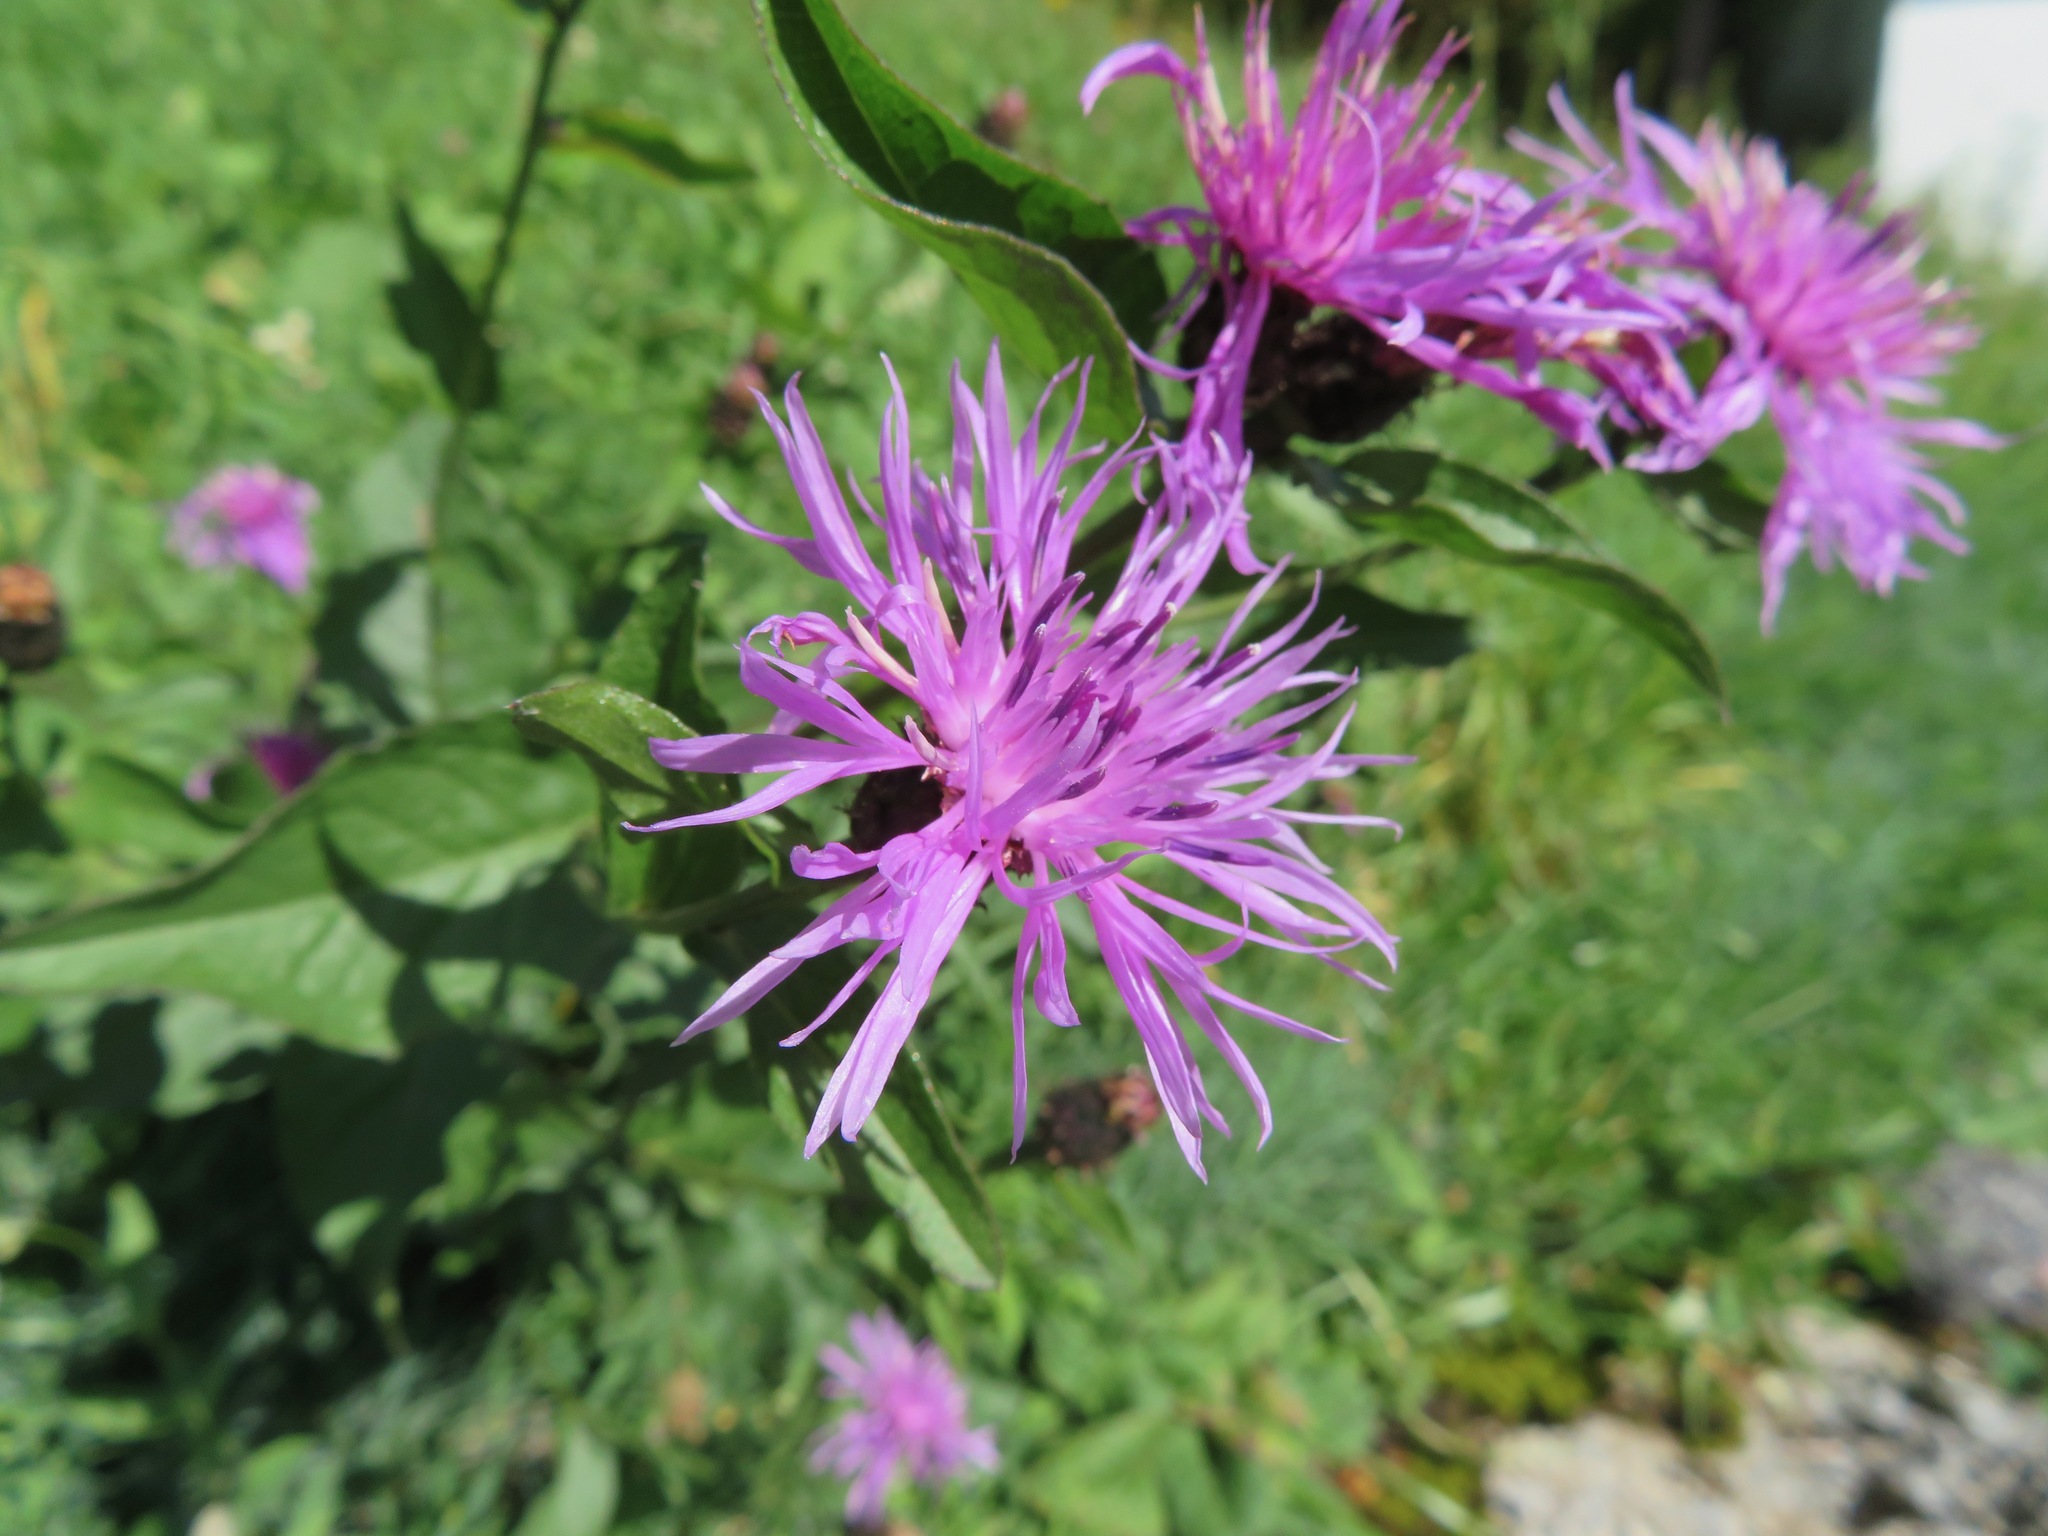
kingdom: Plantae
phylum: Tracheophyta
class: Magnoliopsida
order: Asterales
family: Asteraceae
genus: Centaurea
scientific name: Centaurea nigrescens
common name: Tyrol knapweed
